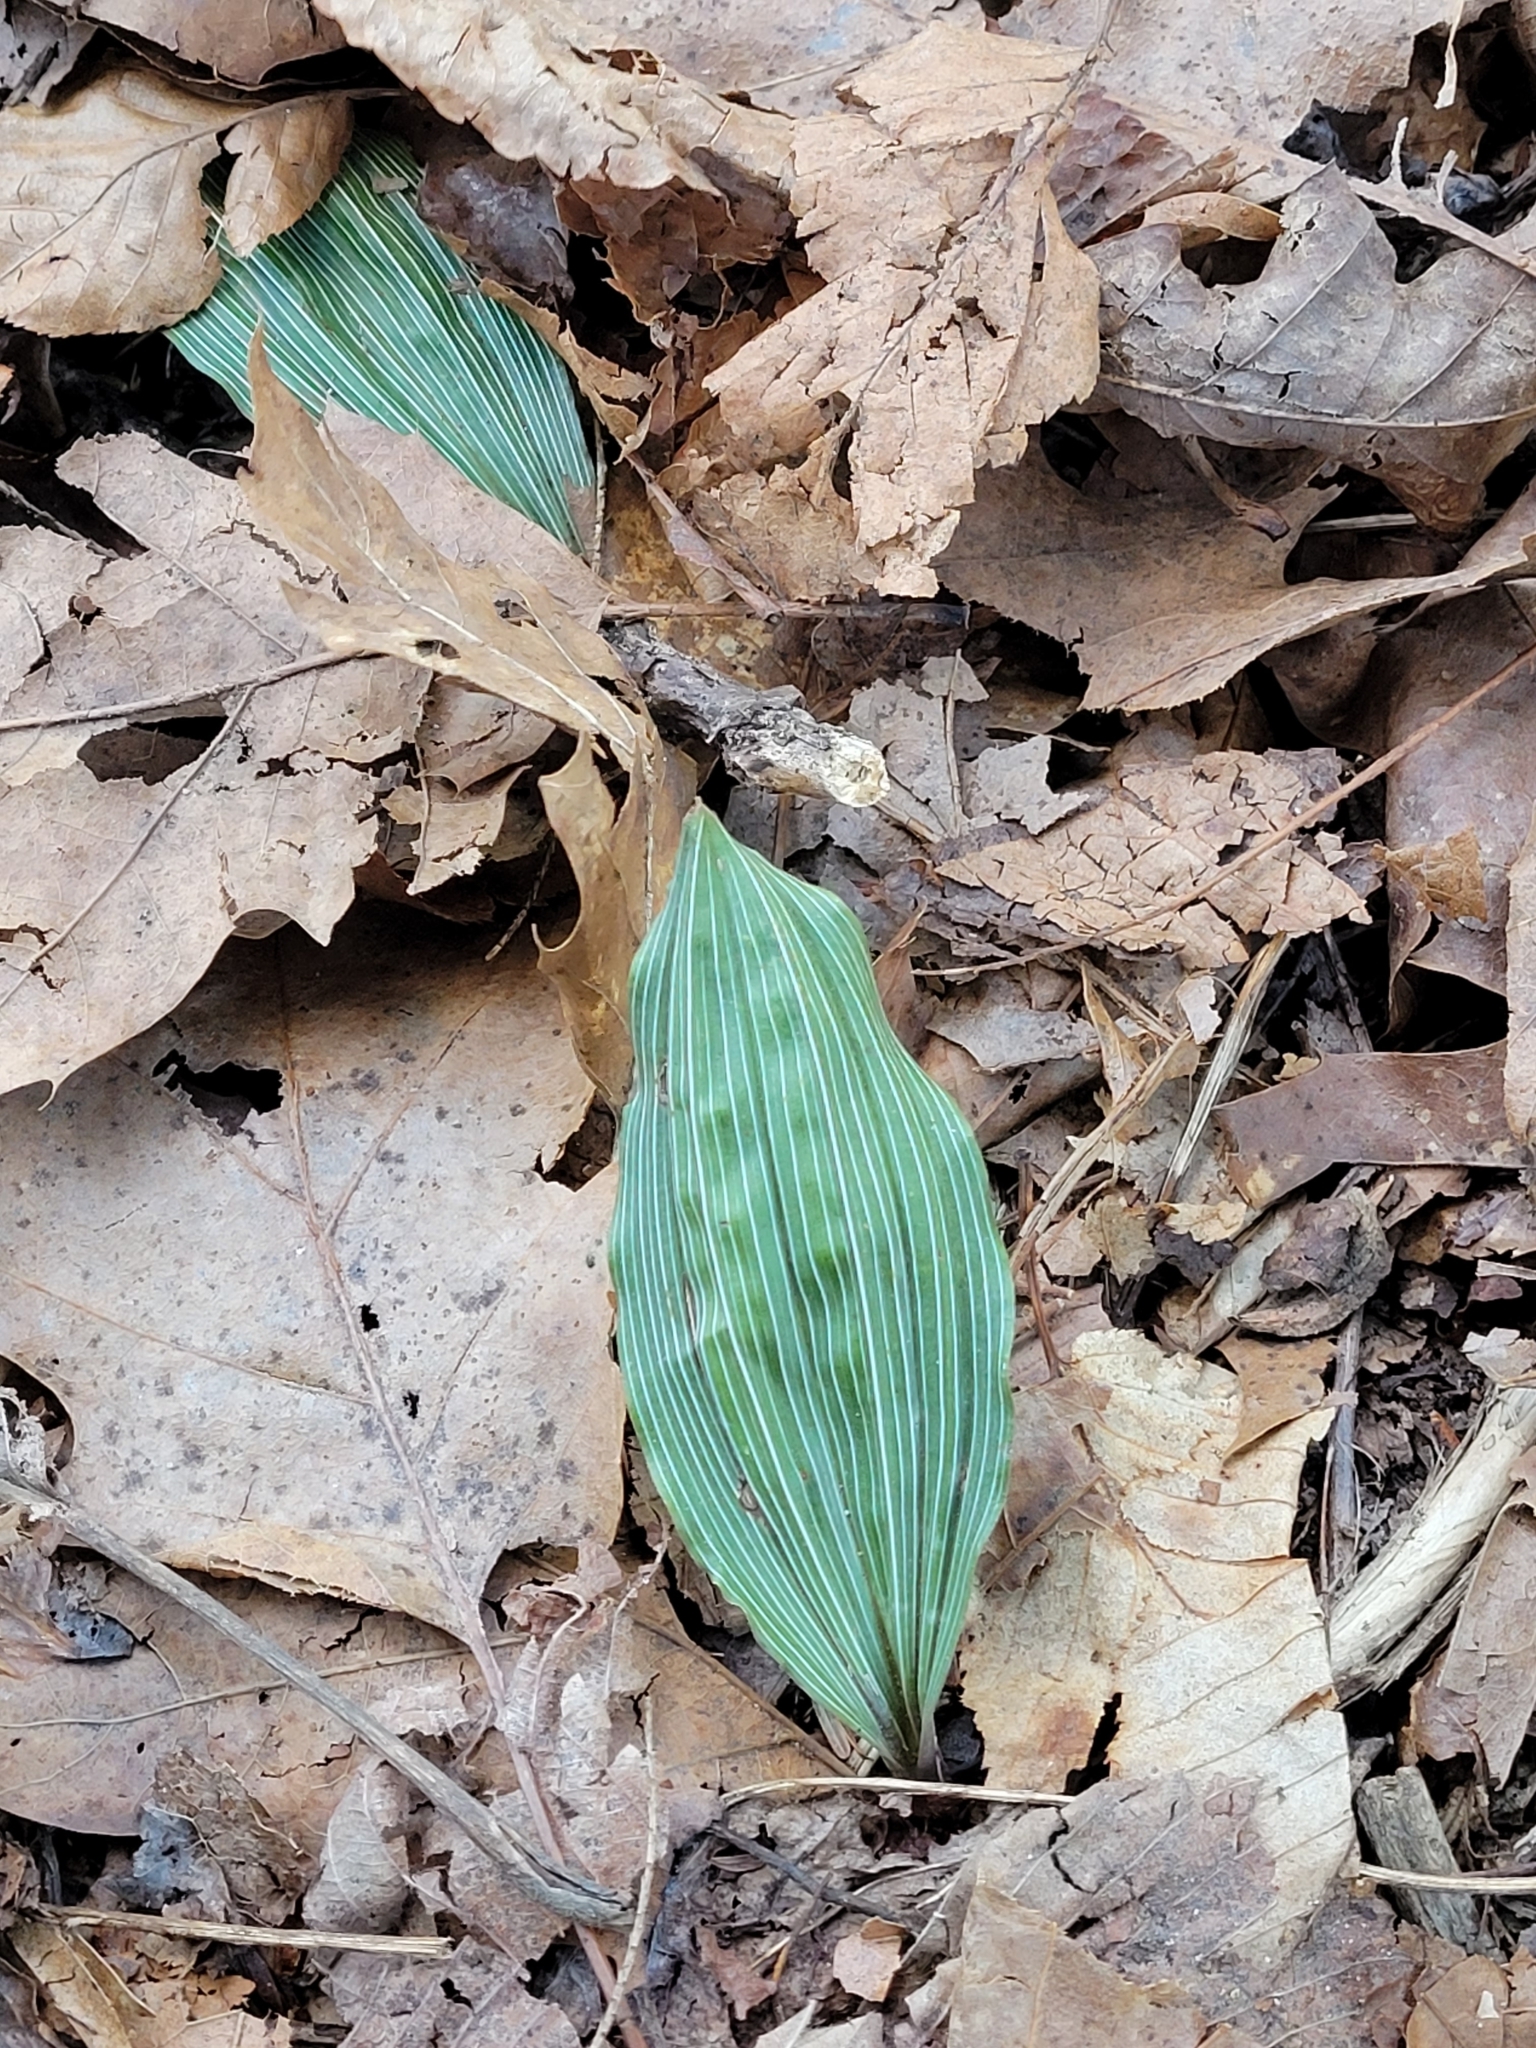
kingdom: Plantae
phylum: Tracheophyta
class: Liliopsida
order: Asparagales
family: Orchidaceae
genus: Aplectrum
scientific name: Aplectrum hyemale
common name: Adam-and-eve
